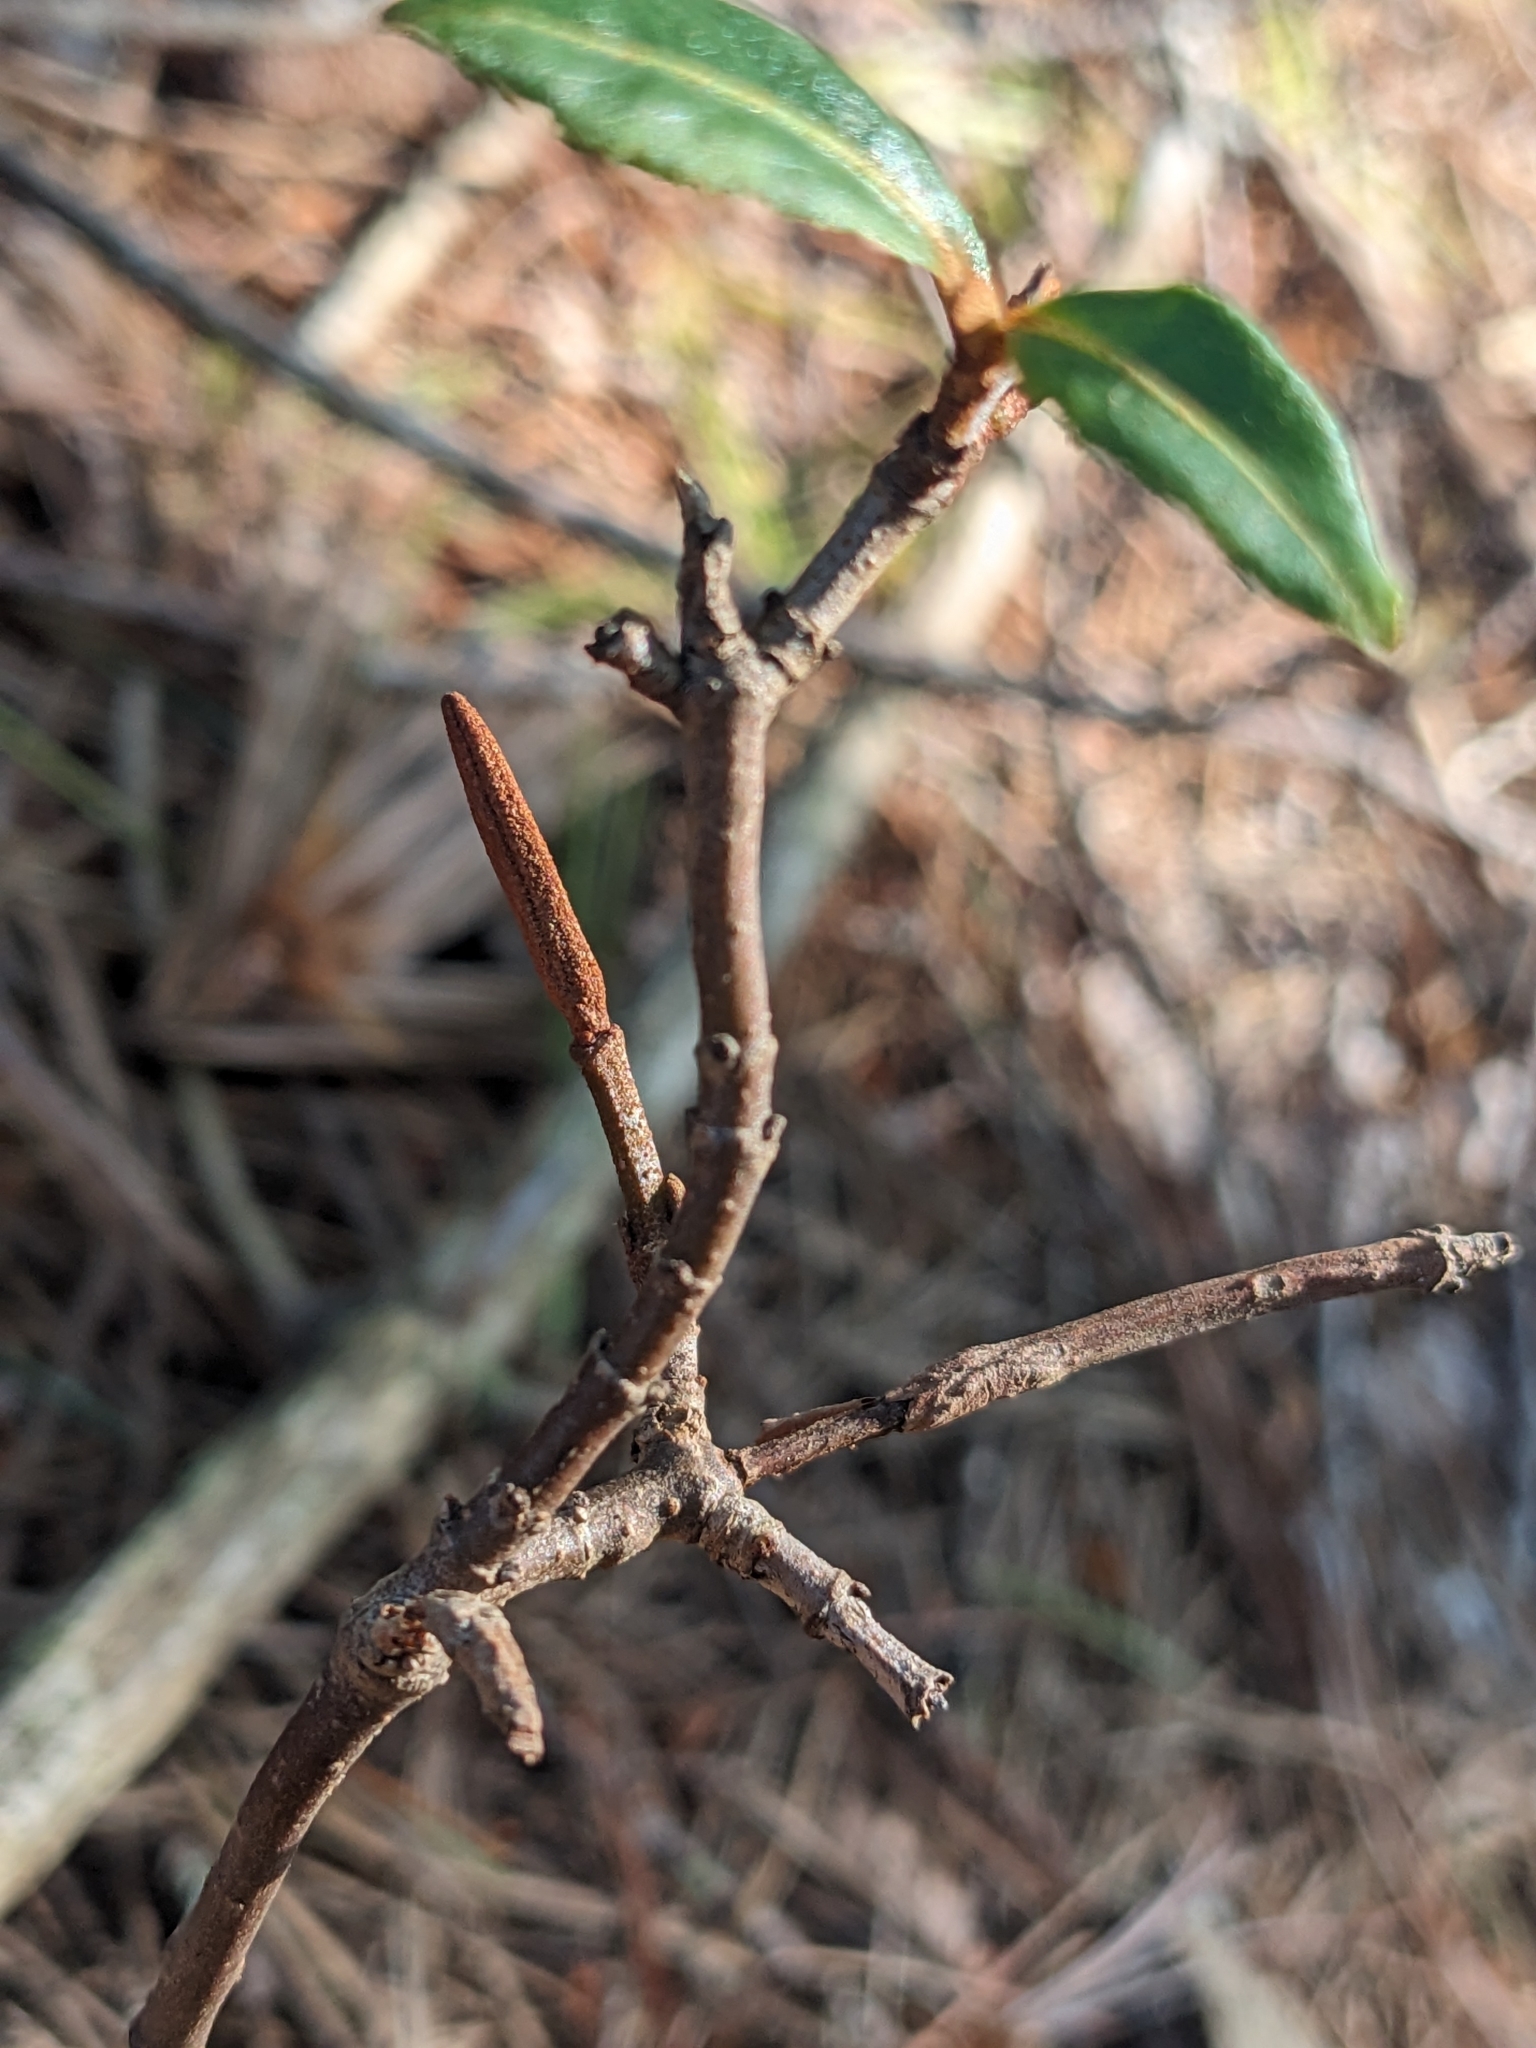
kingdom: Plantae
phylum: Tracheophyta
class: Magnoliopsida
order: Dipsacales
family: Viburnaceae
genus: Viburnum
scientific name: Viburnum cassinoides
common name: Swamp haw
